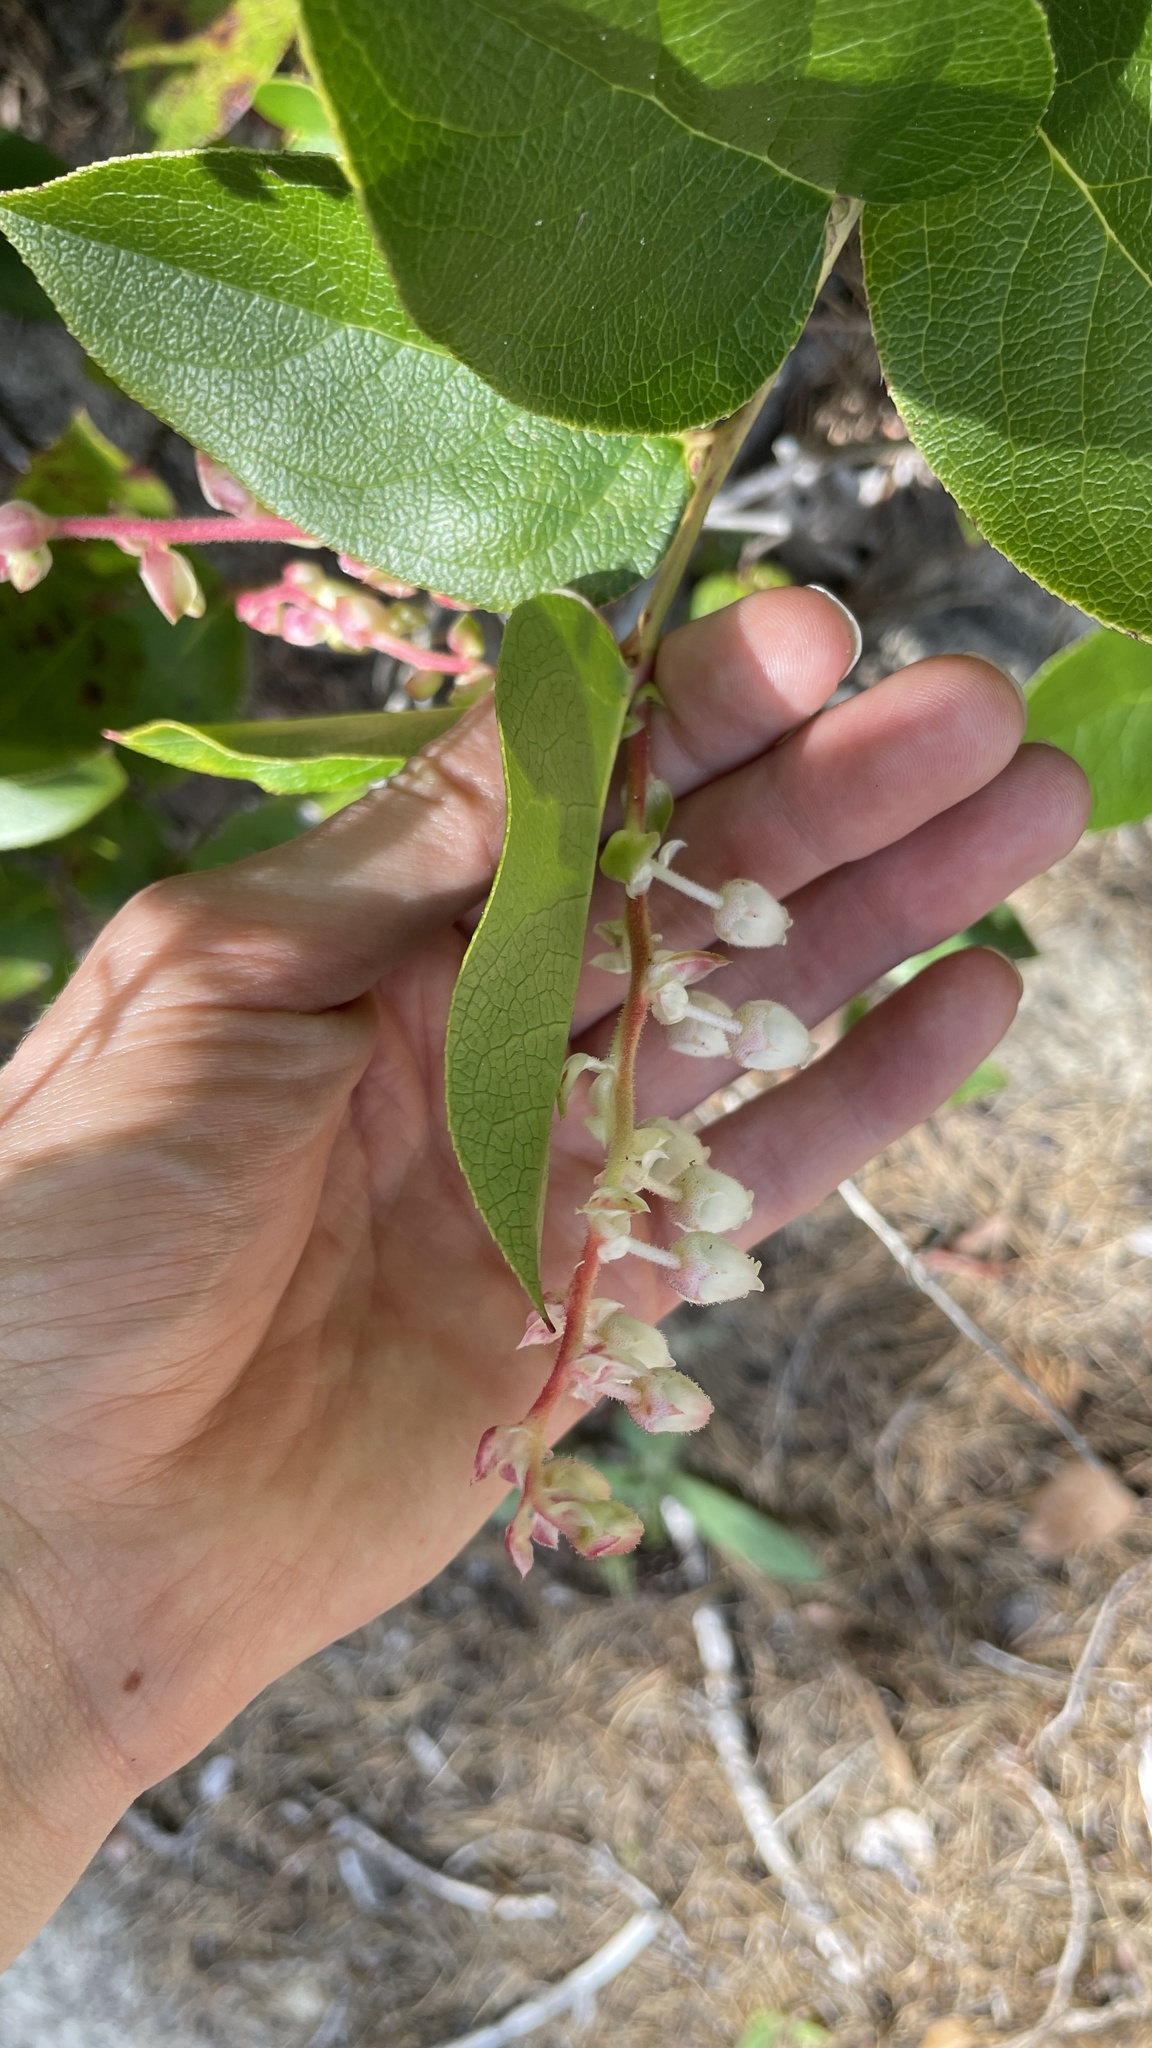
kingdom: Plantae
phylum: Tracheophyta
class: Magnoliopsida
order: Ericales
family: Ericaceae
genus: Gaultheria
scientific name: Gaultheria shallon
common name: Shallon
